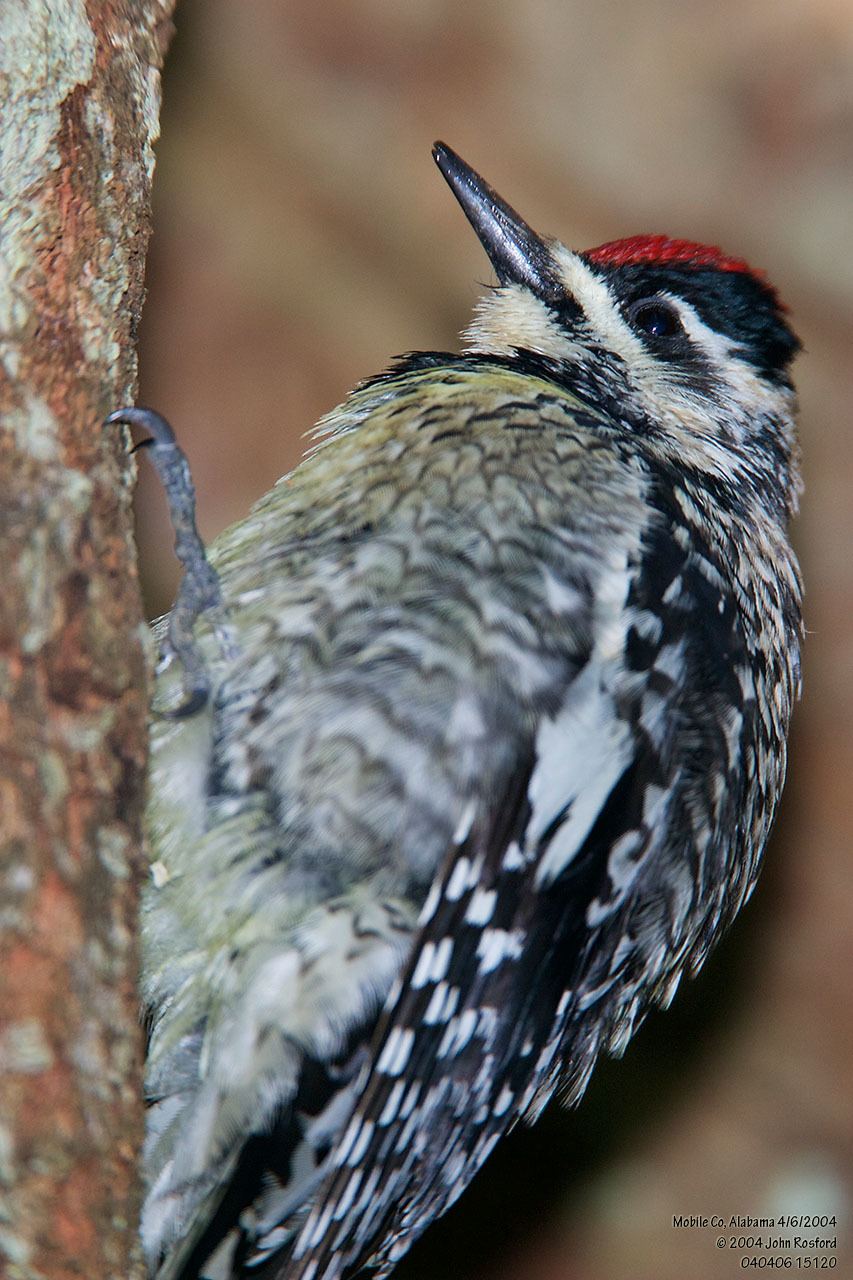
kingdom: Animalia
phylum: Chordata
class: Aves
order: Piciformes
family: Picidae
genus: Sphyrapicus
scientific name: Sphyrapicus varius
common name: Yellow-bellied sapsucker
